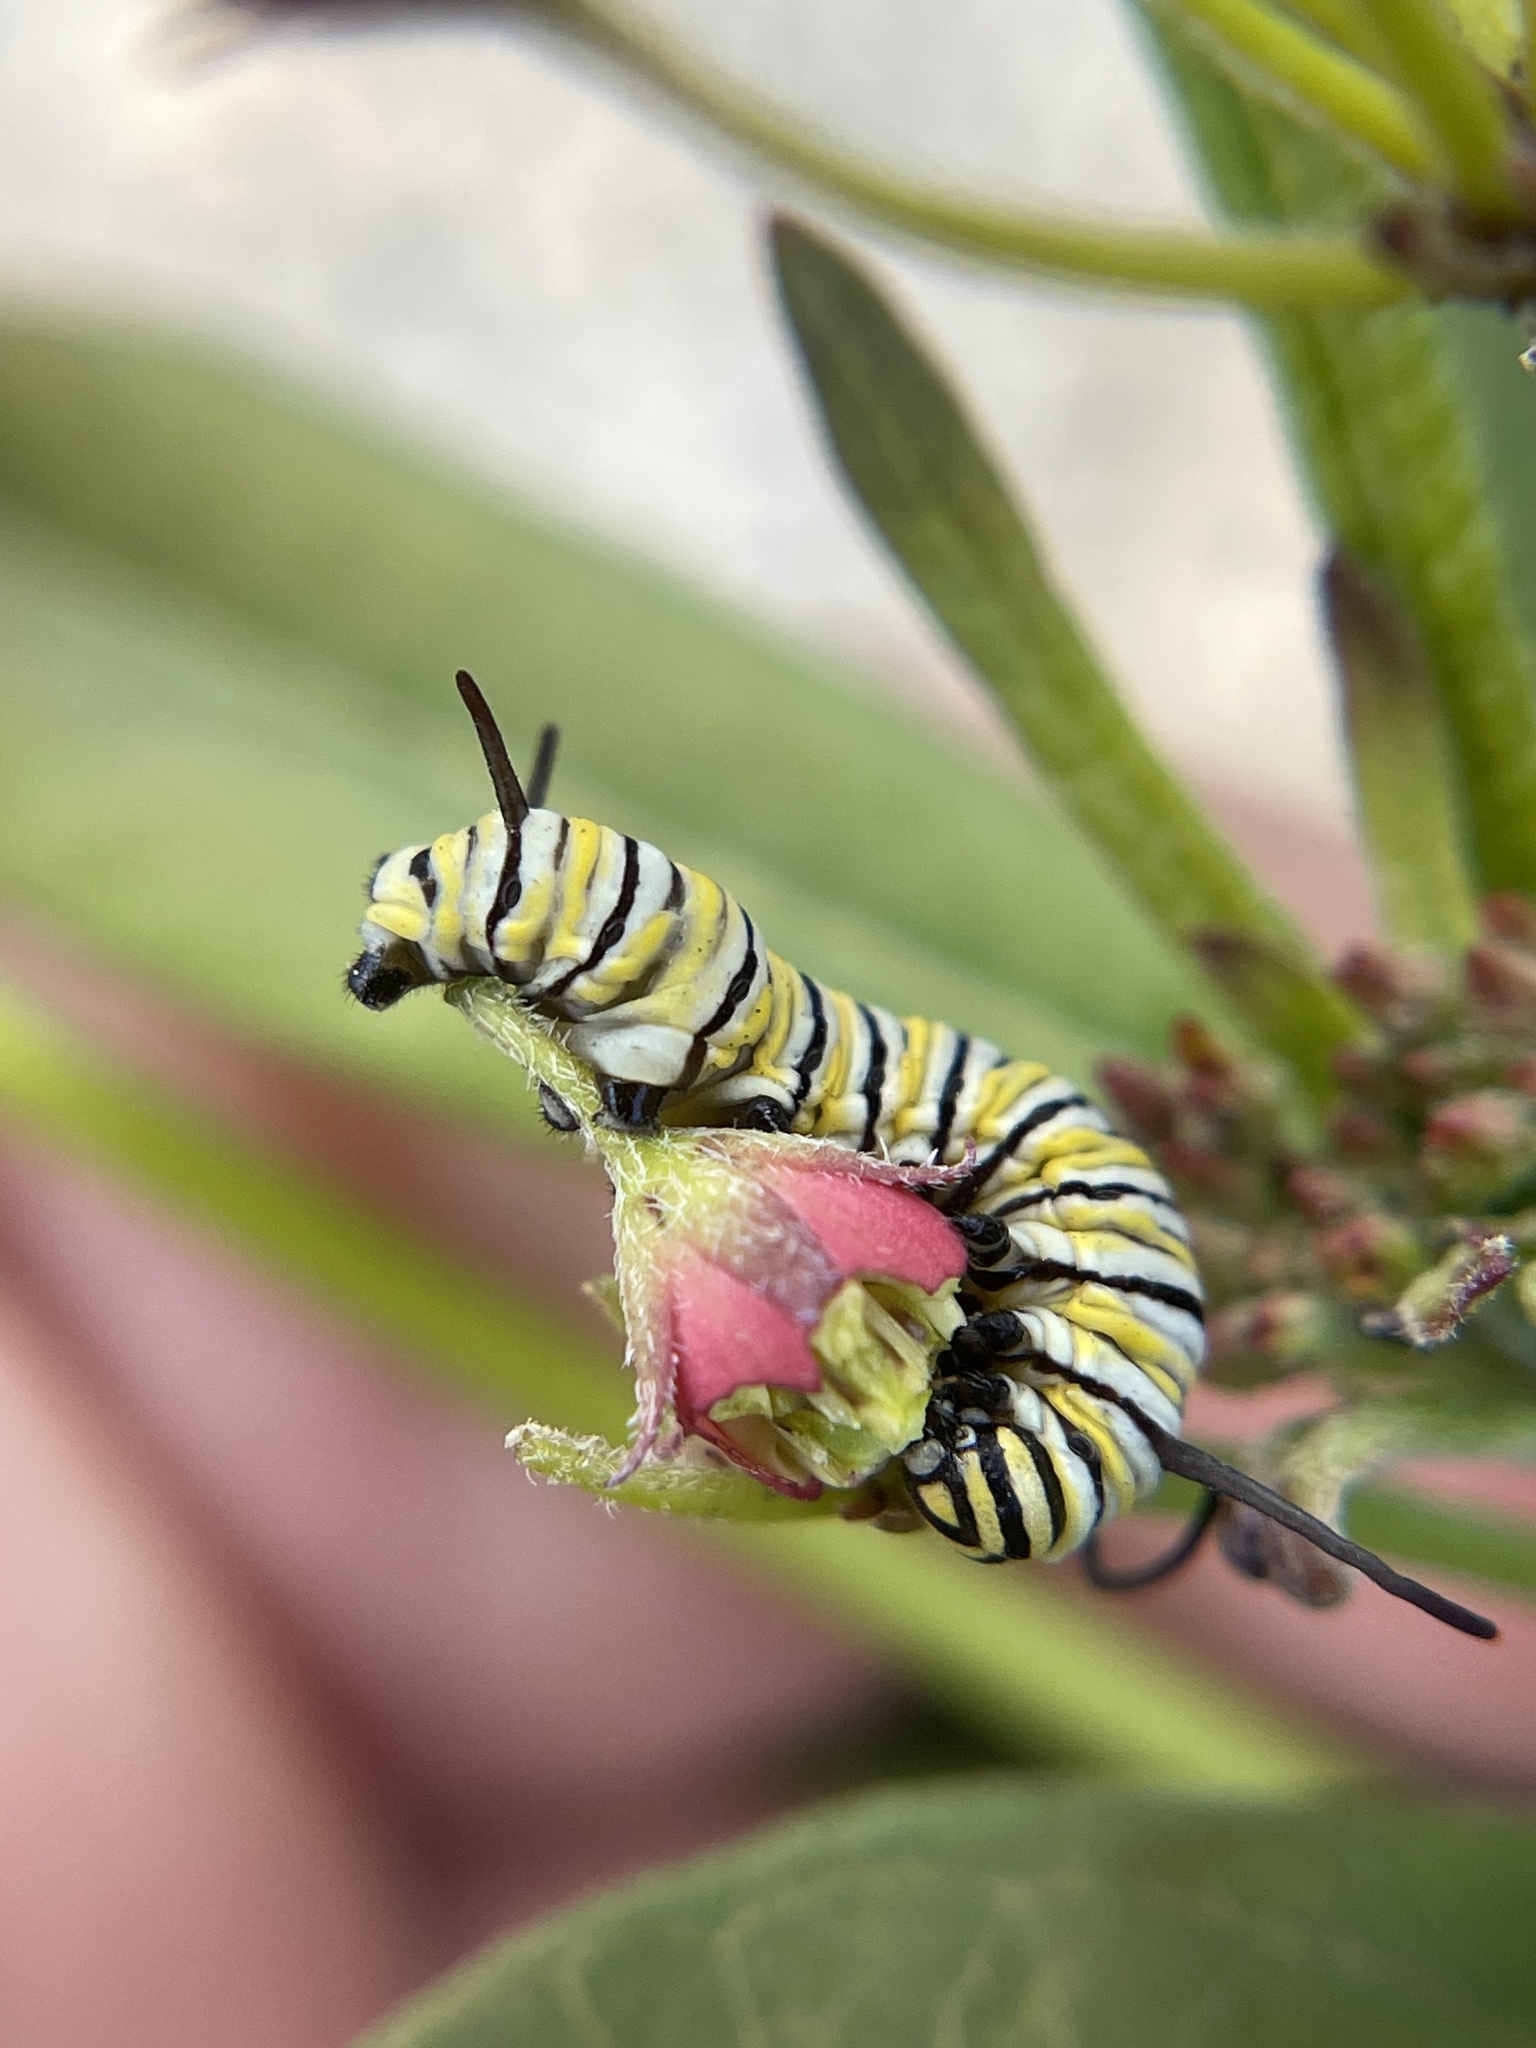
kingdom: Animalia
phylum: Arthropoda
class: Insecta
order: Lepidoptera
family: Nymphalidae
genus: Danaus
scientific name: Danaus plexippus
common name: Monarch
